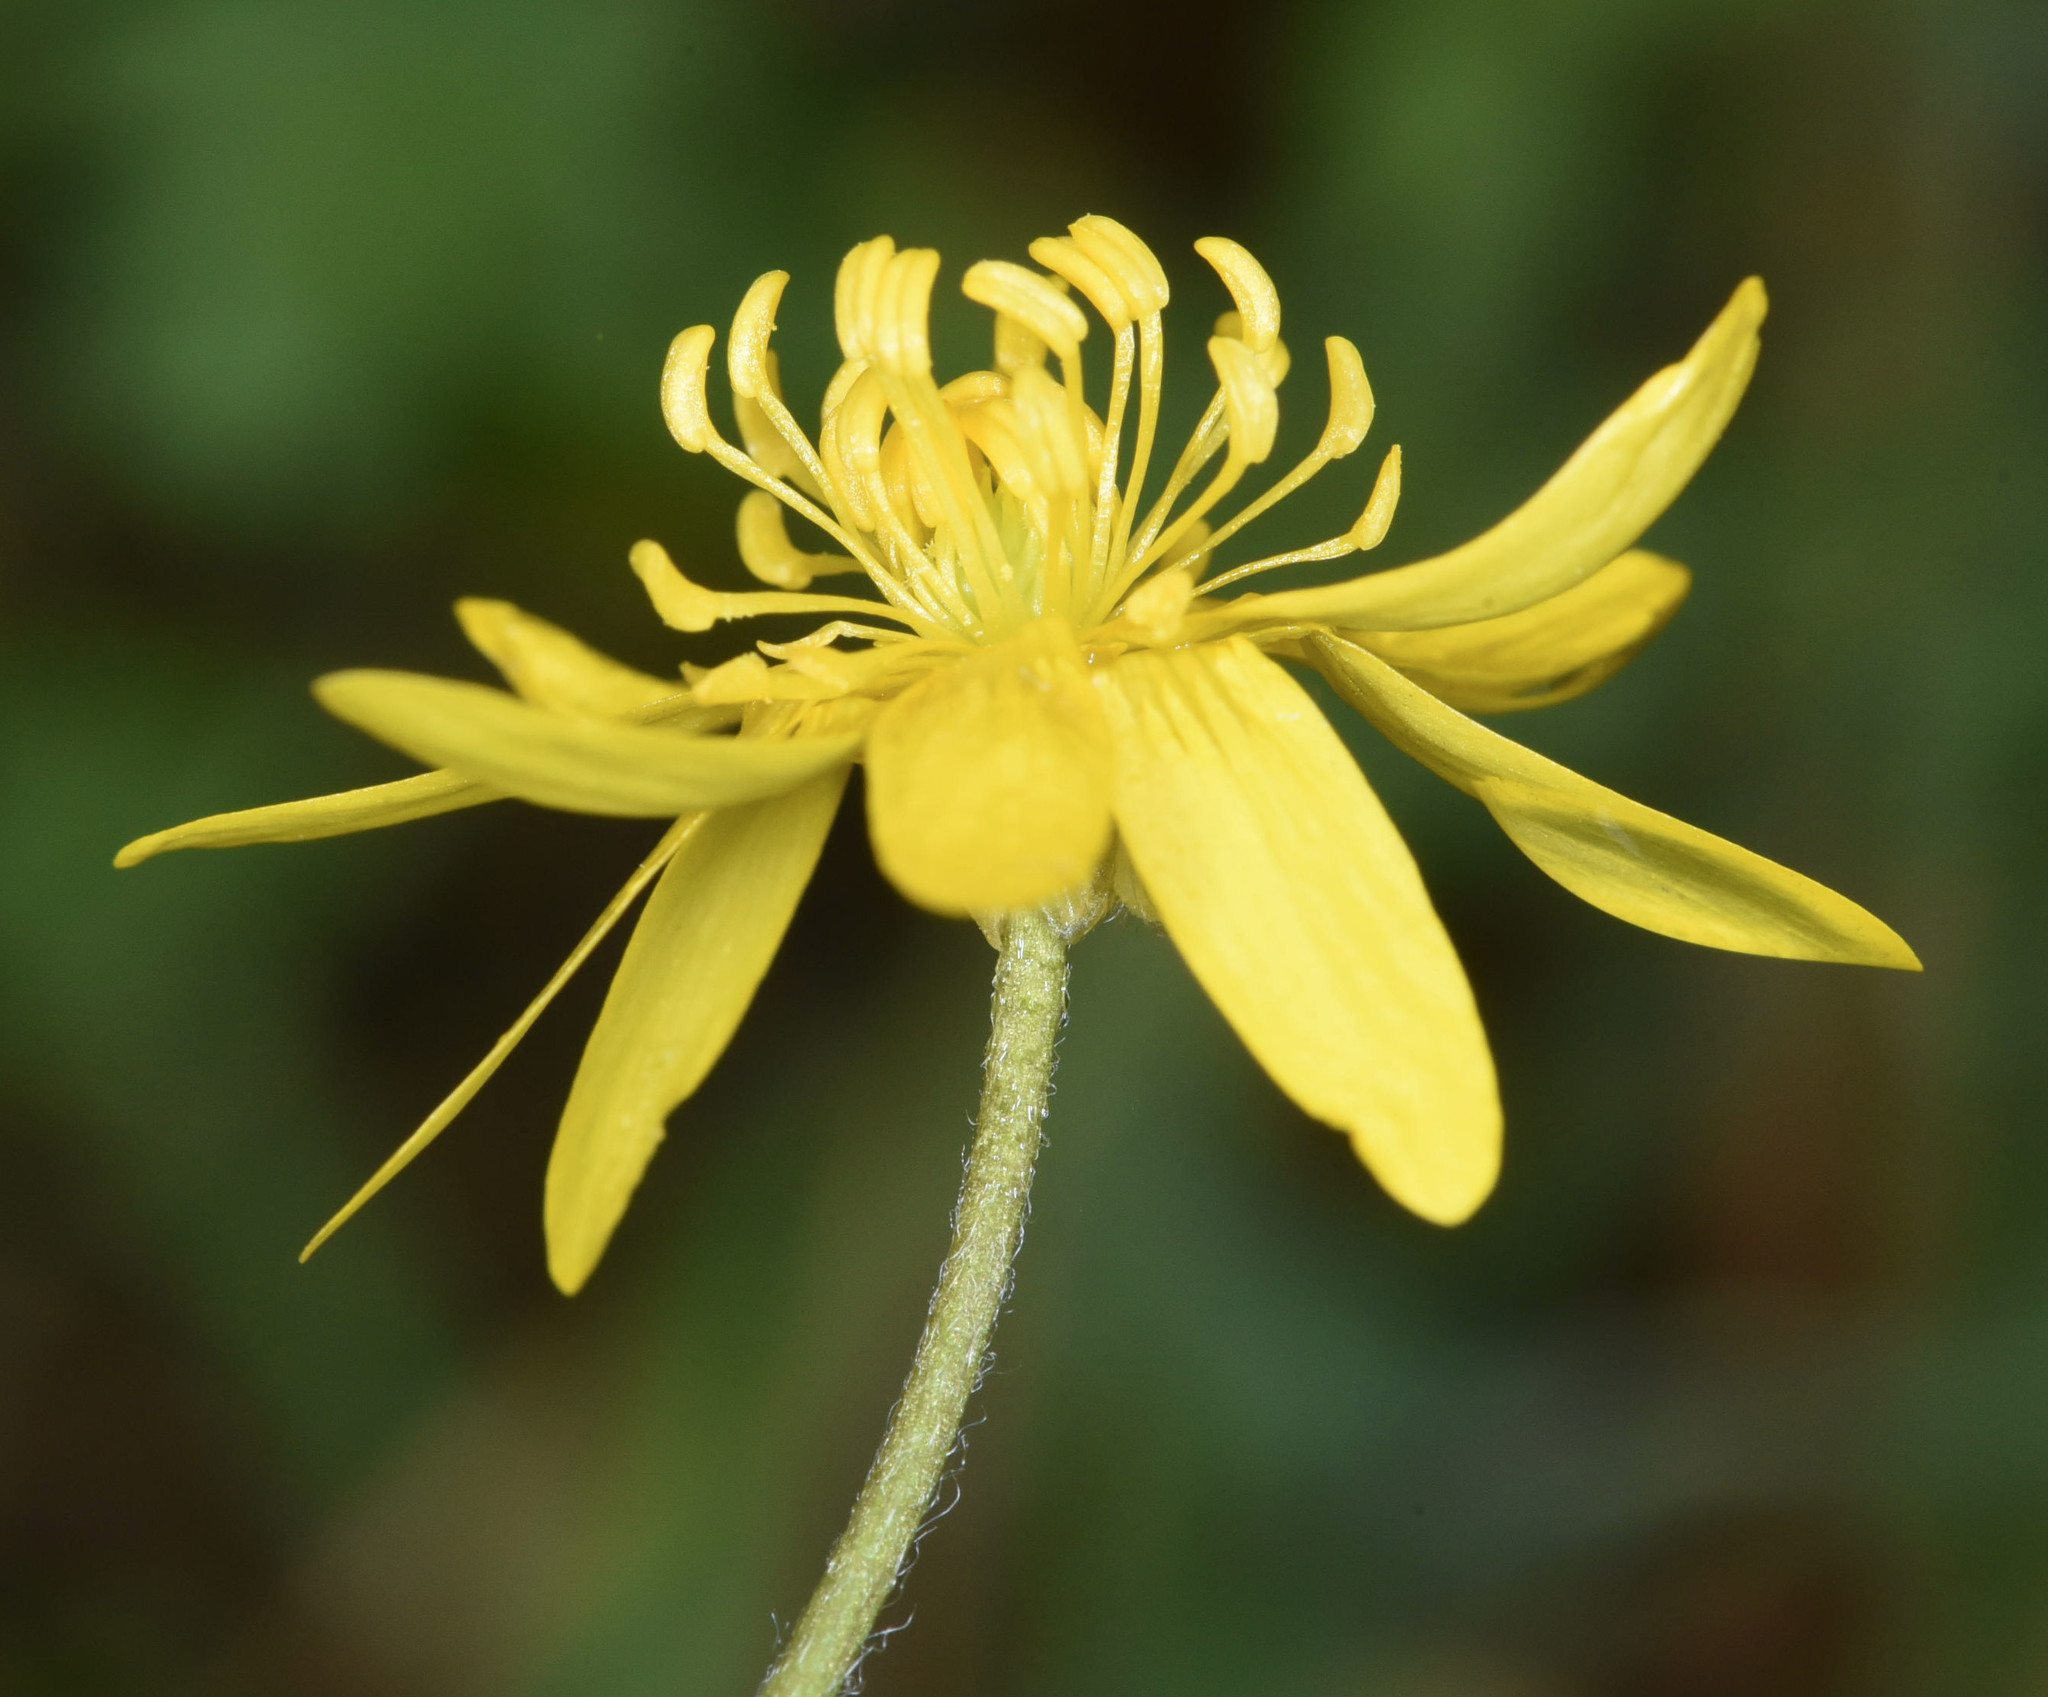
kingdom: Plantae
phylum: Tracheophyta
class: Magnoliopsida
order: Ranunculales
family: Ranunculaceae
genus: Ranunculus
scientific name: Ranunculus californicus
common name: California buttercup
